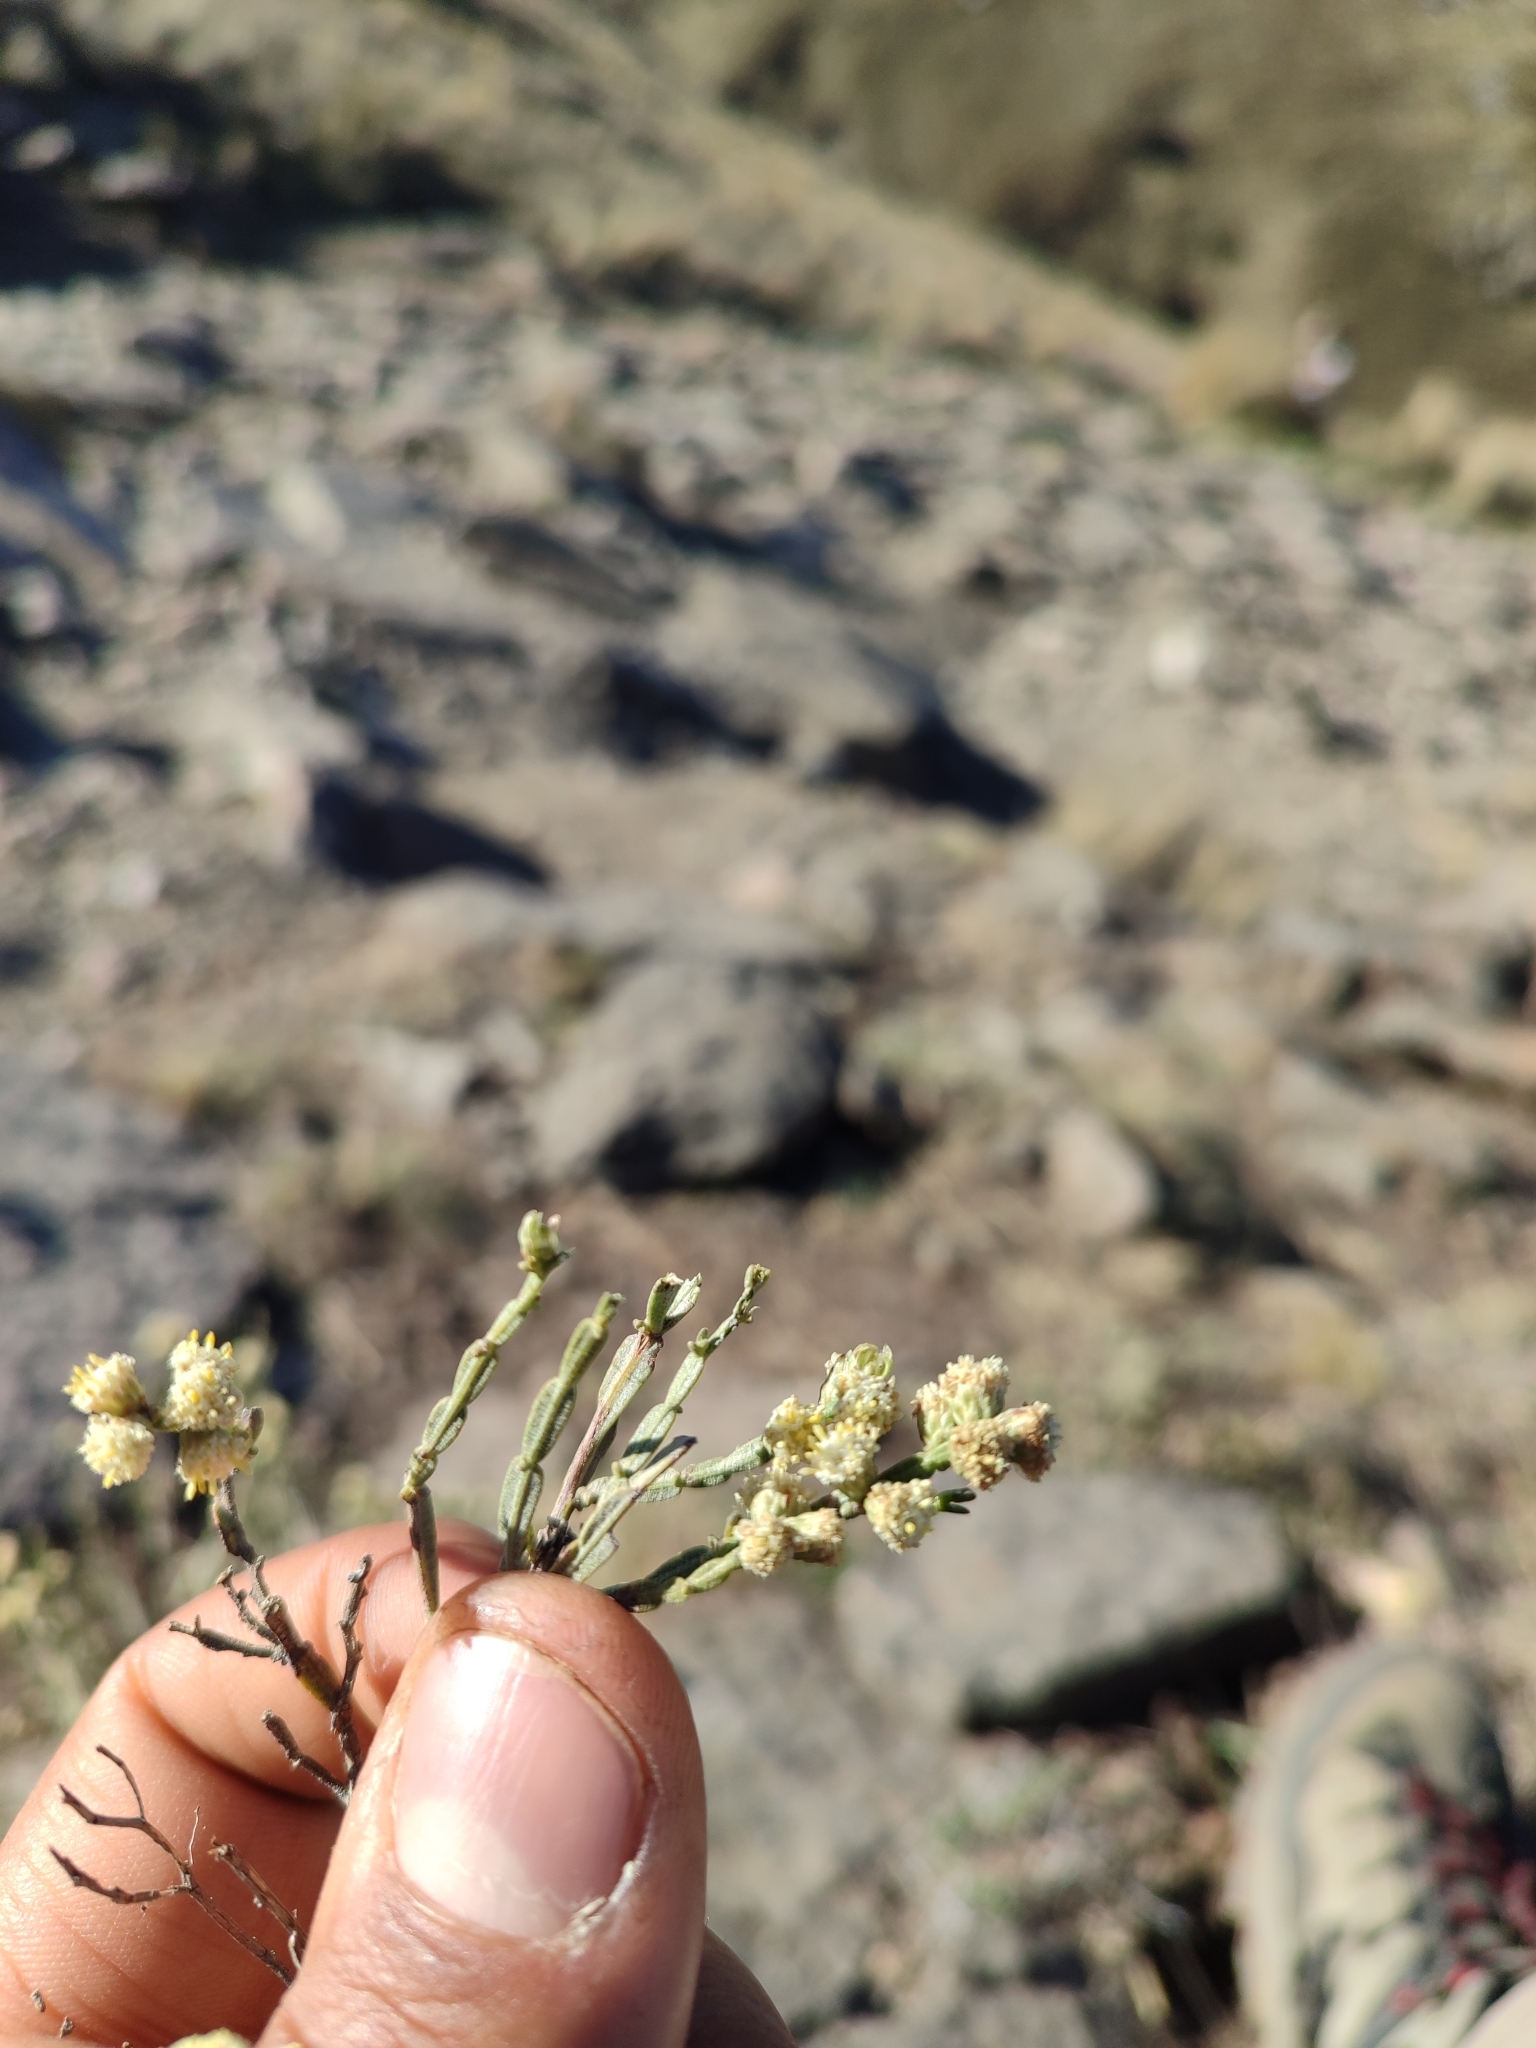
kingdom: Plantae
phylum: Tracheophyta
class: Magnoliopsida
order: Asterales
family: Asteraceae
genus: Baccharis
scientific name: Baccharis articulata
